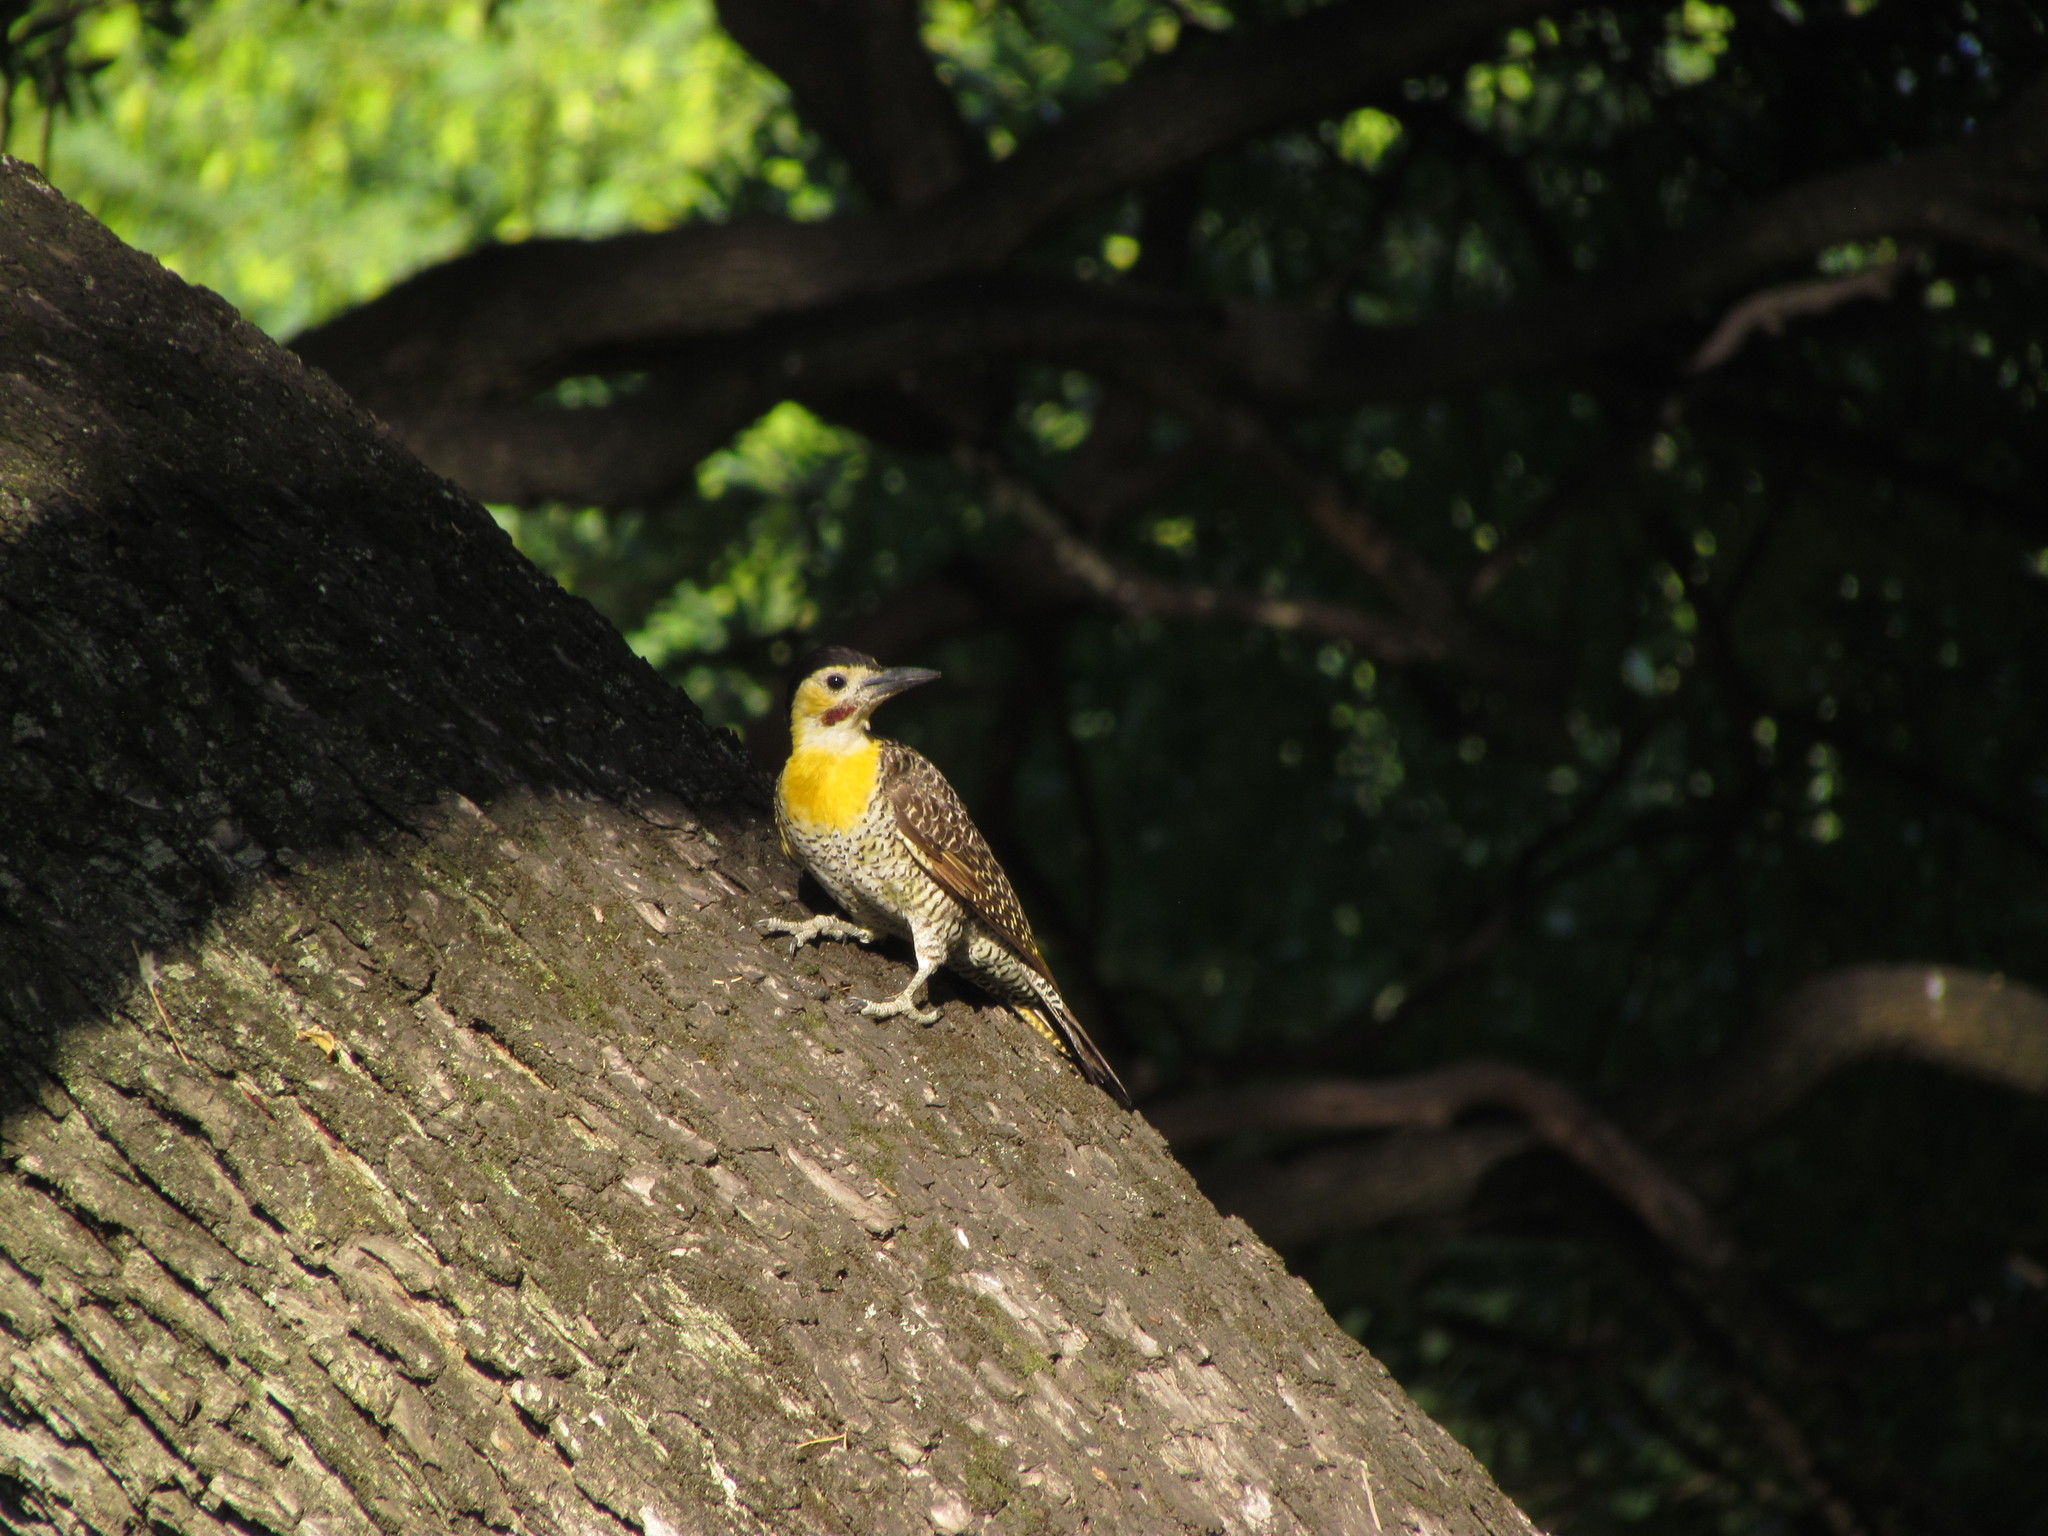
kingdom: Animalia
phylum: Chordata
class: Aves
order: Piciformes
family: Picidae
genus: Colaptes
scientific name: Colaptes campestris
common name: Campo flicker
